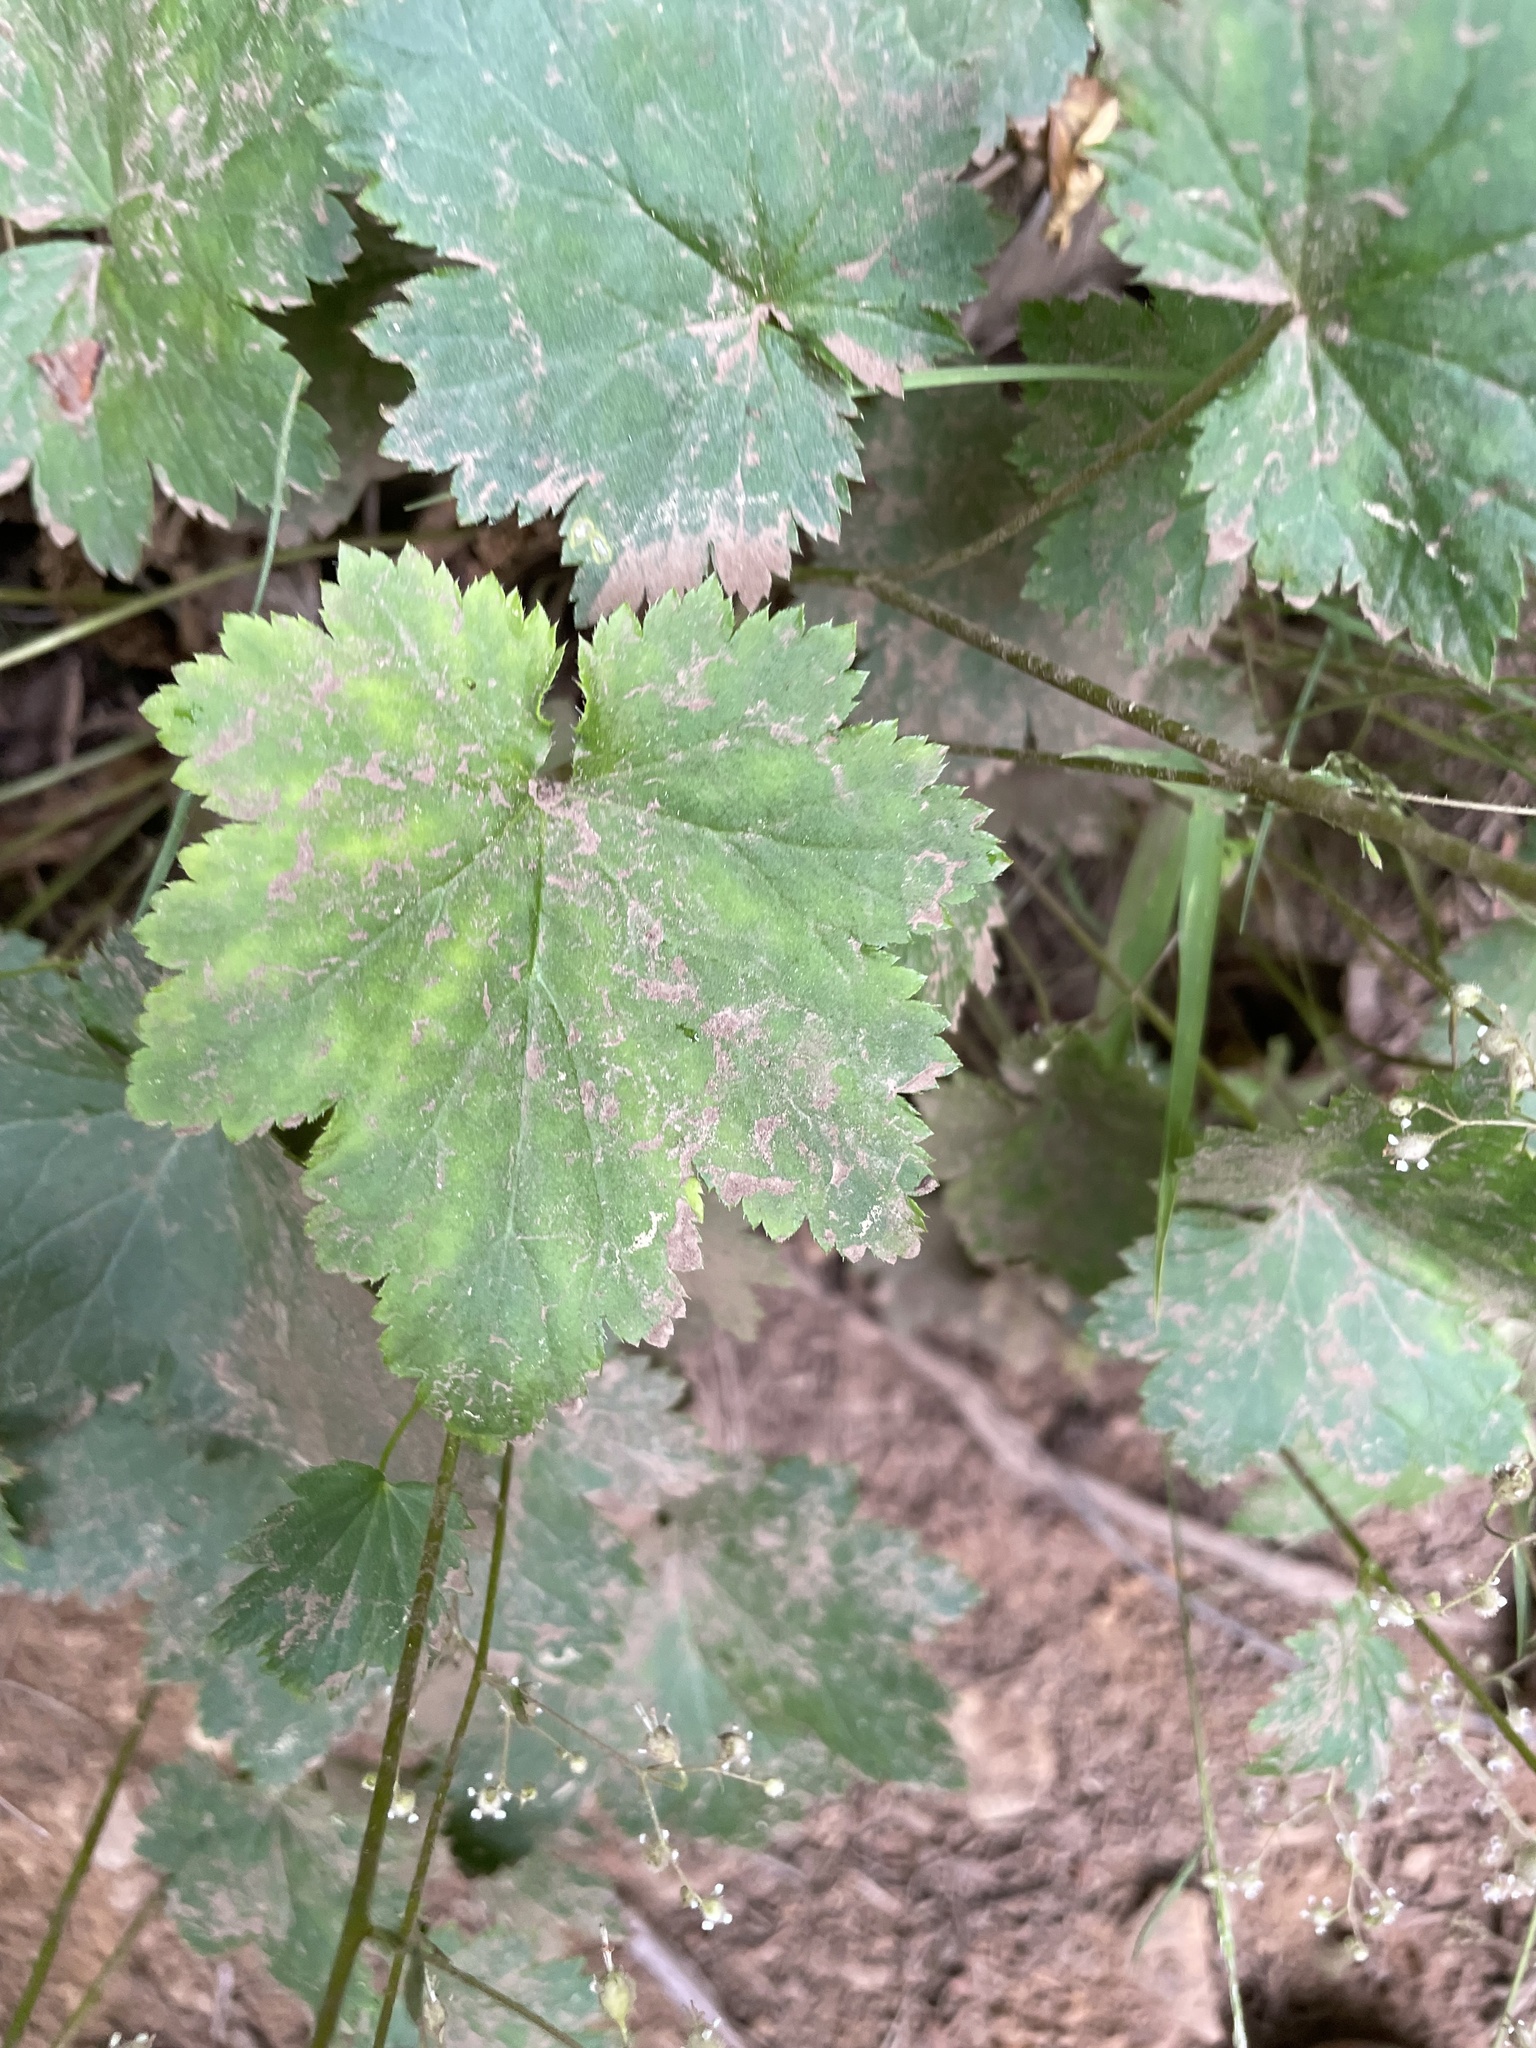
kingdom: Plantae
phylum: Tracheophyta
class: Magnoliopsida
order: Saxifragales
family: Saxifragaceae
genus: Heuchera
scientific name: Heuchera glabra
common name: Alpine alumroot
